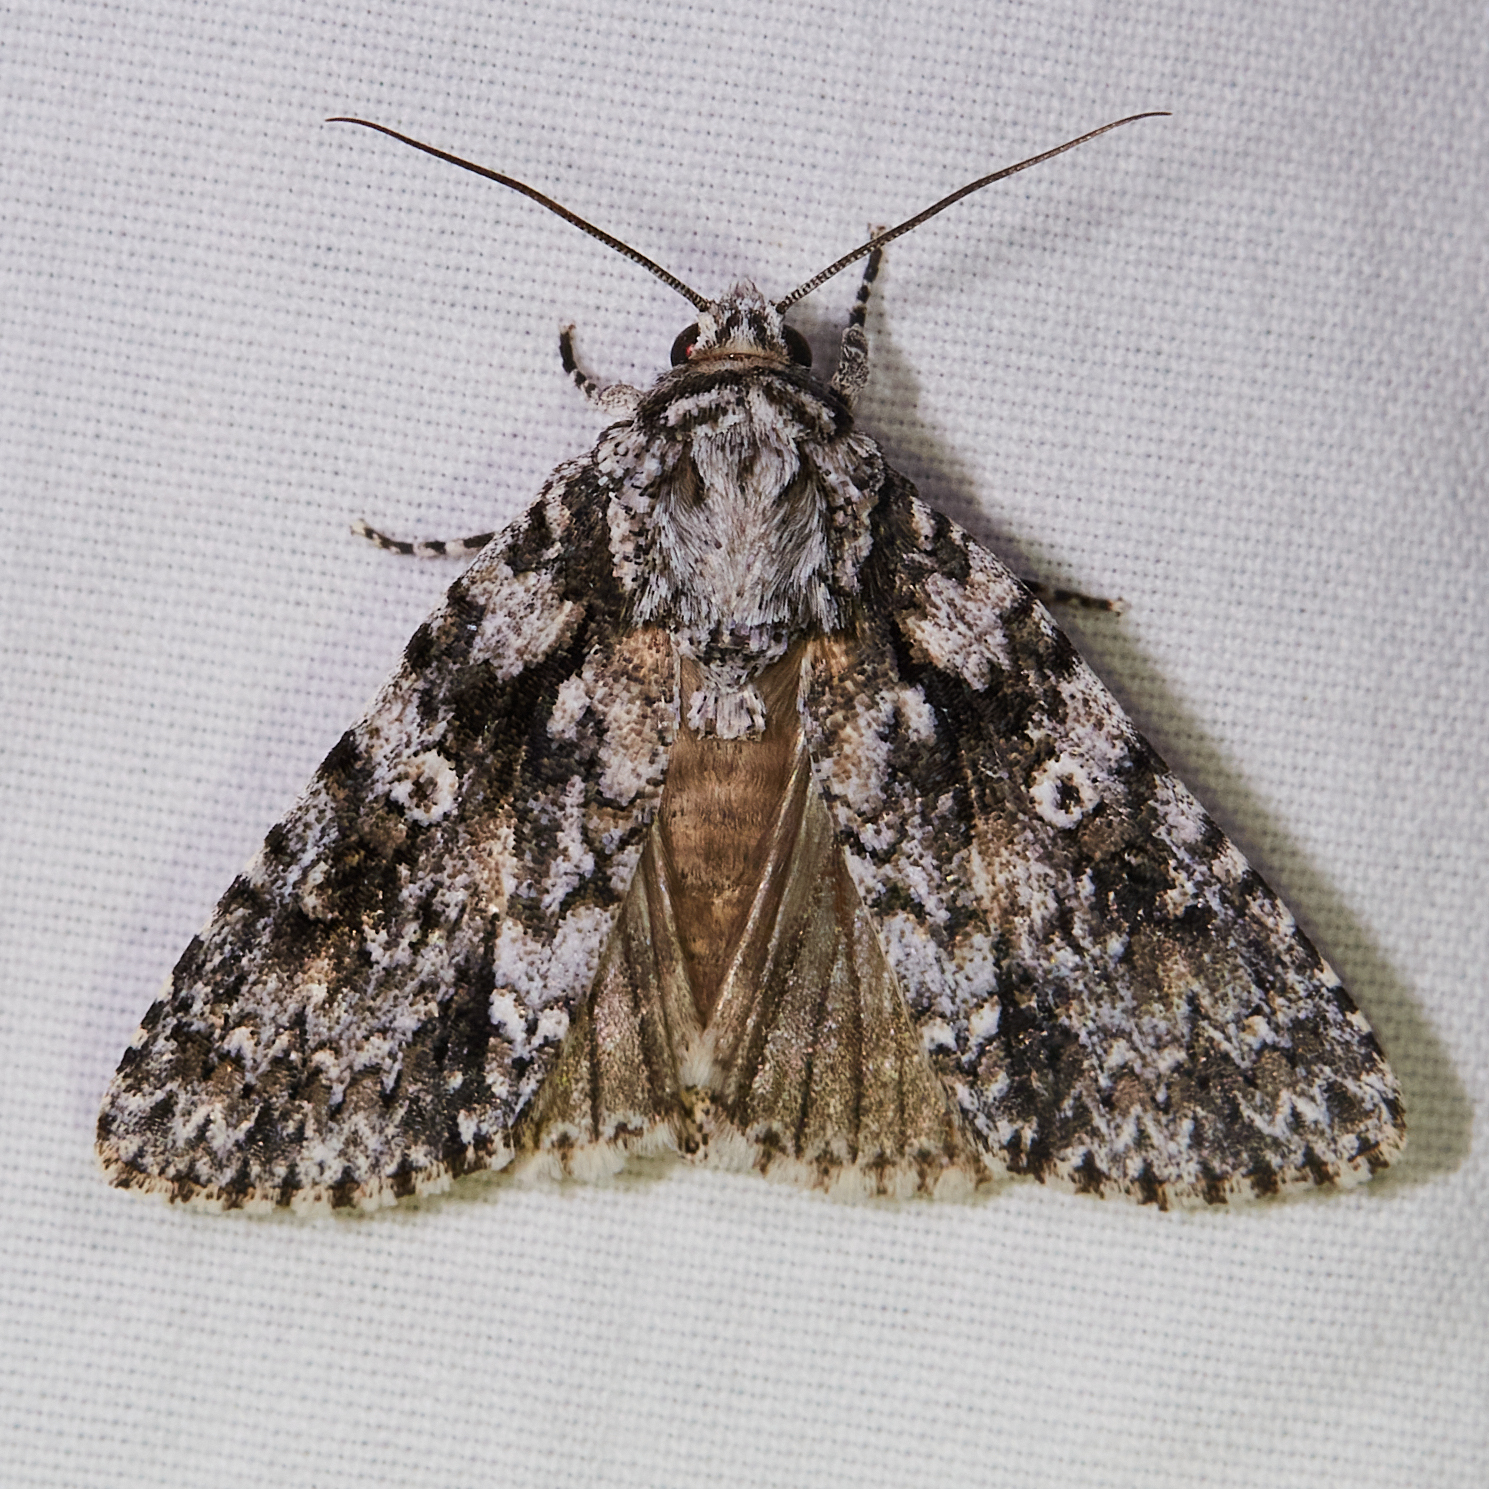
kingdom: Animalia
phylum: Arthropoda
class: Insecta
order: Lepidoptera
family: Noctuidae
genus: Acronicta
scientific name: Acronicta marmorata
